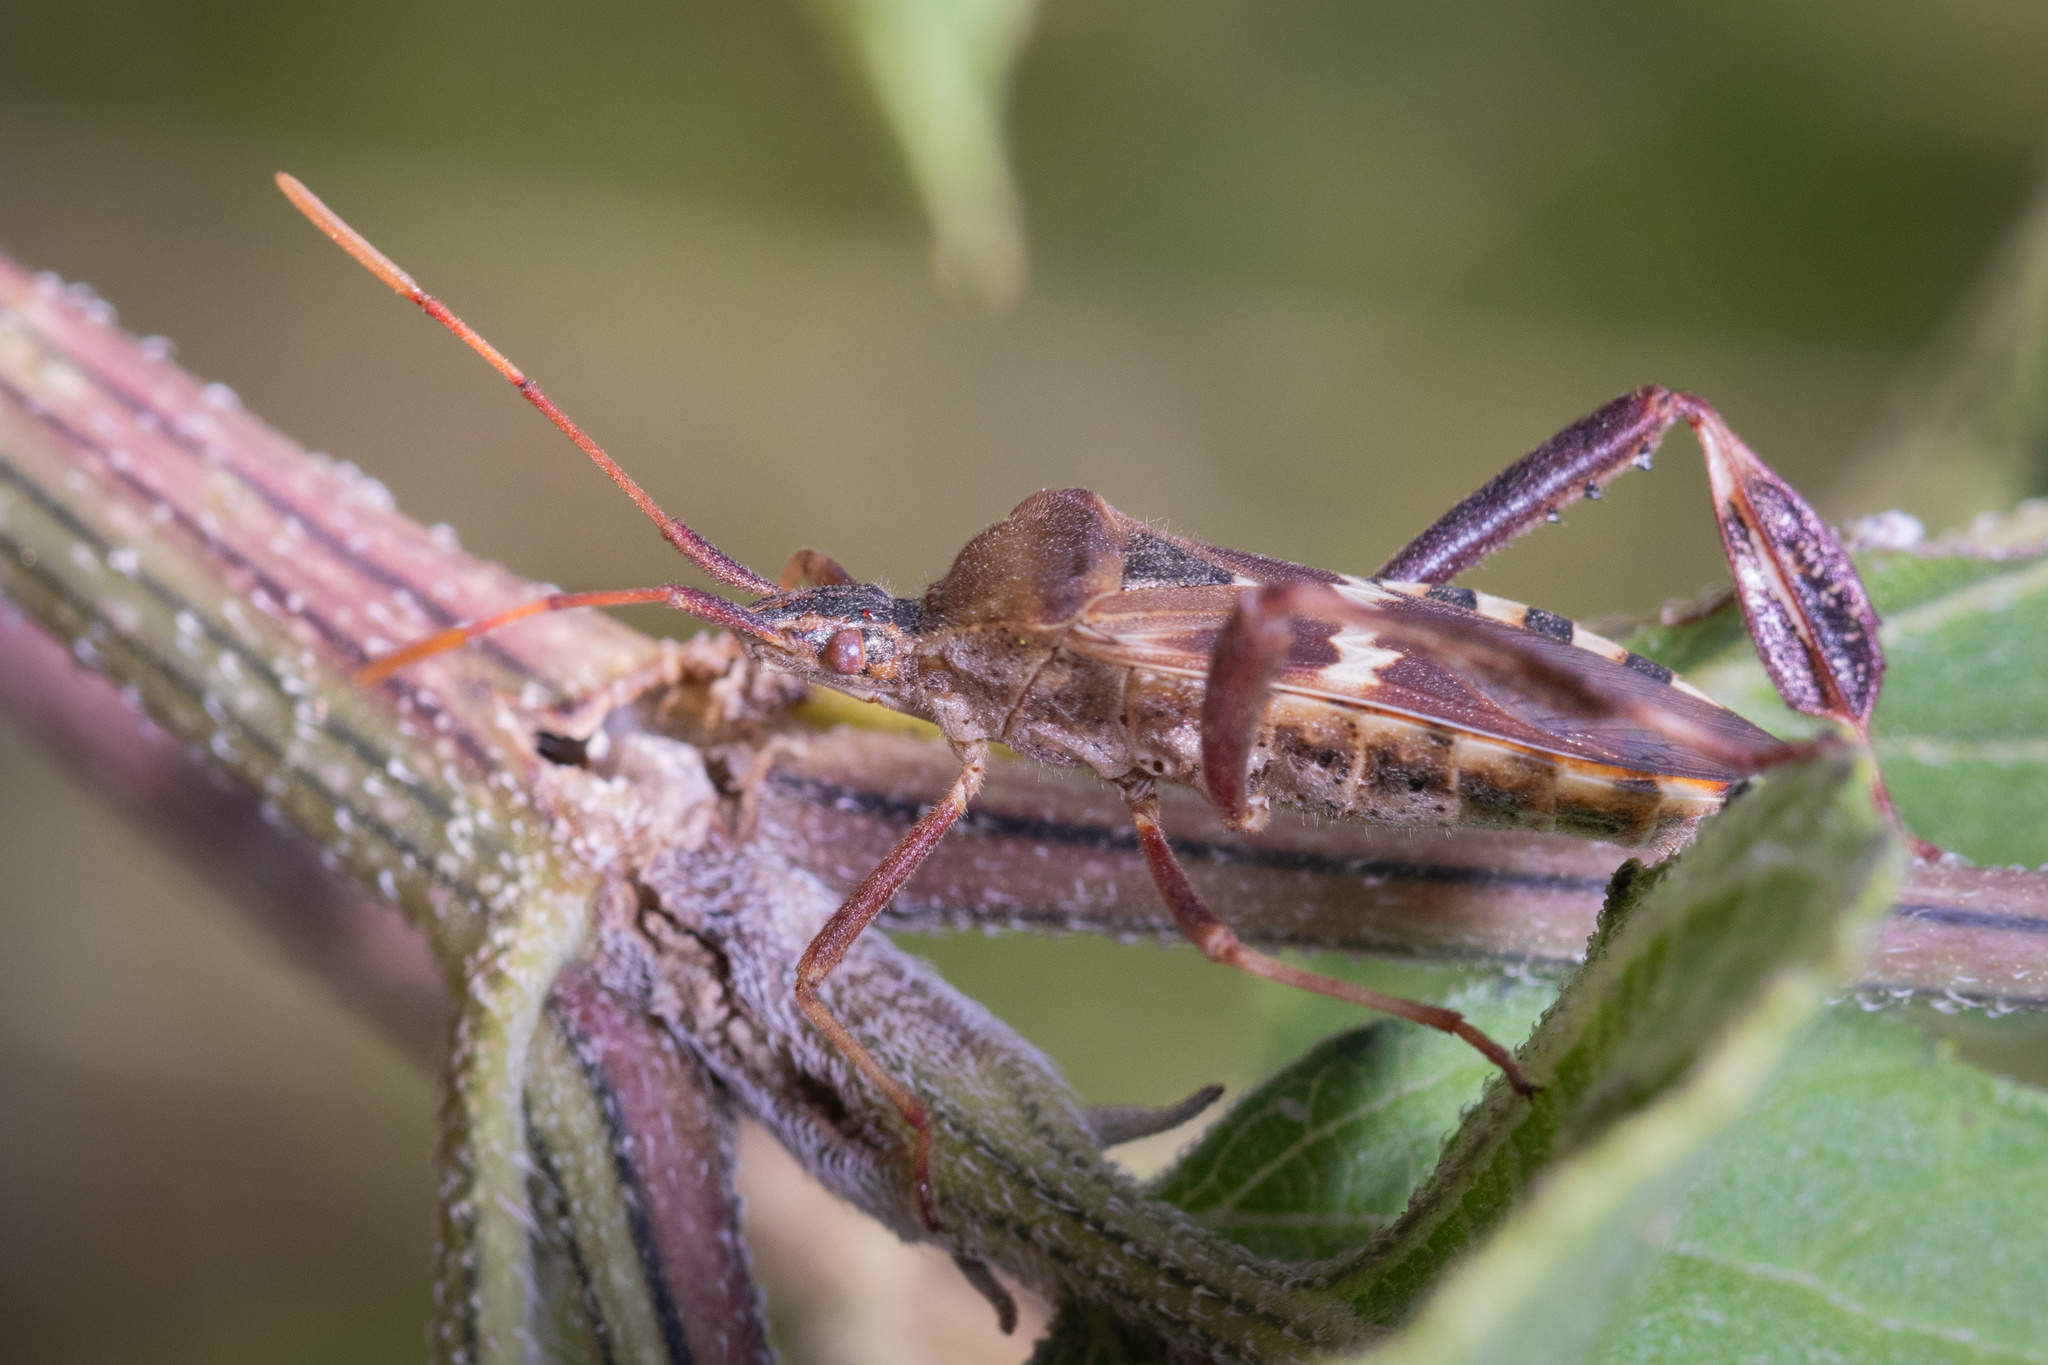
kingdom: Animalia
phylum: Arthropoda
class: Insecta
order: Hemiptera
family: Coreidae
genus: Leptoglossus
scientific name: Leptoglossus clypealis
